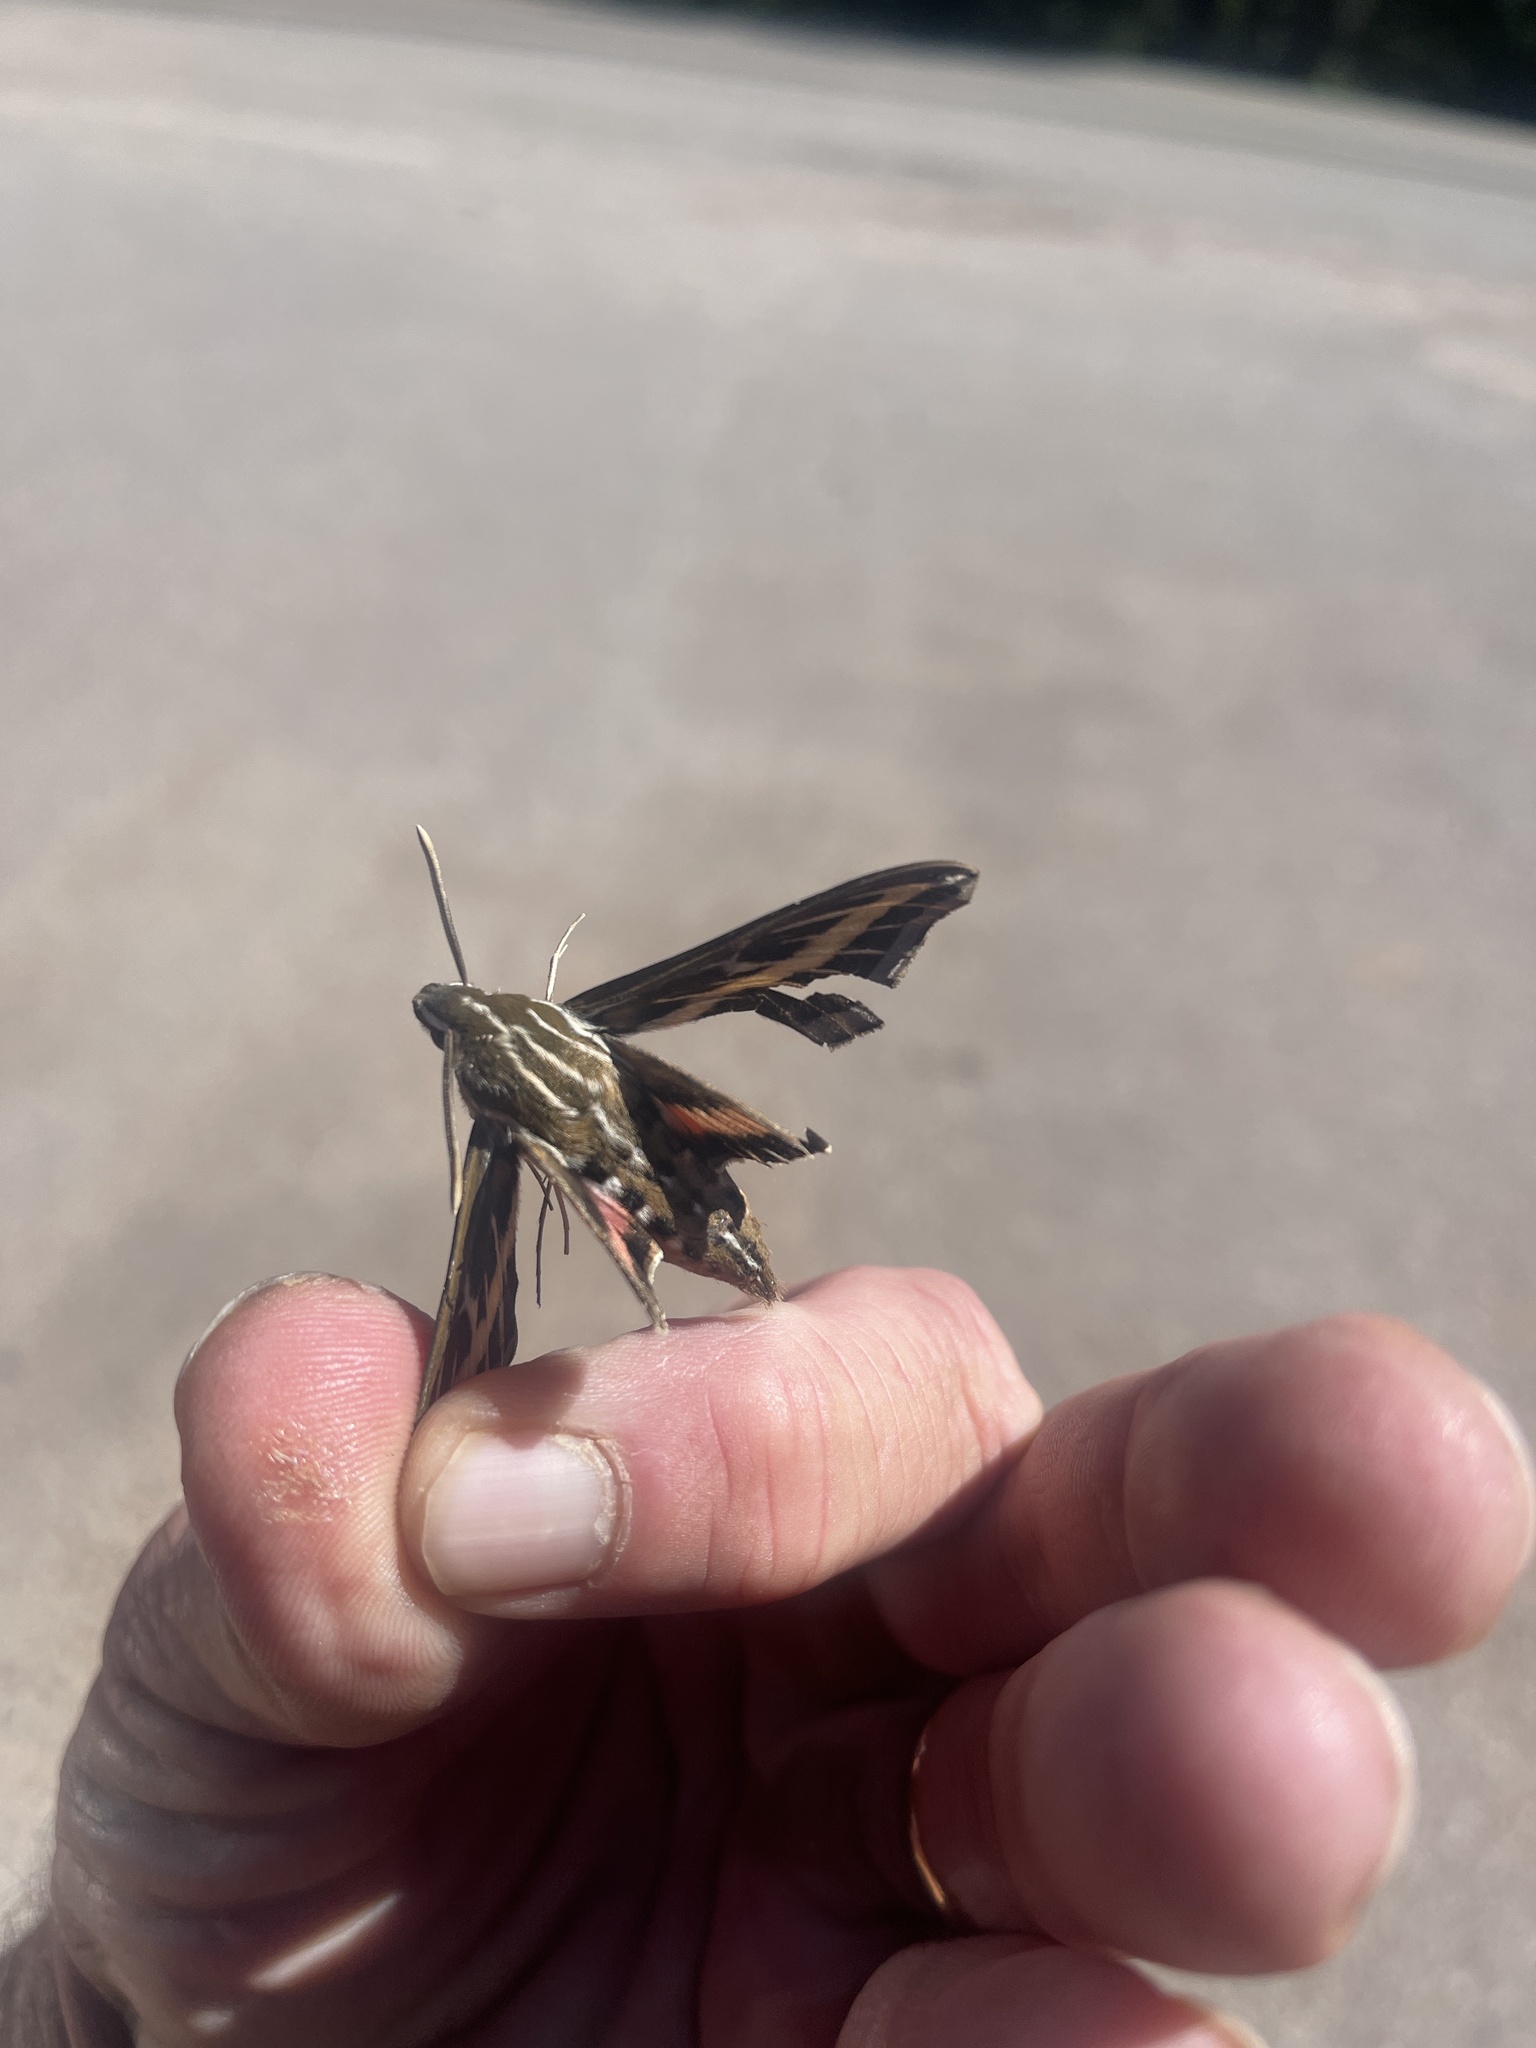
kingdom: Animalia
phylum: Arthropoda
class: Insecta
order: Lepidoptera
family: Sphingidae
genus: Hyles
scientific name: Hyles lineata
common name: White-lined sphinx
